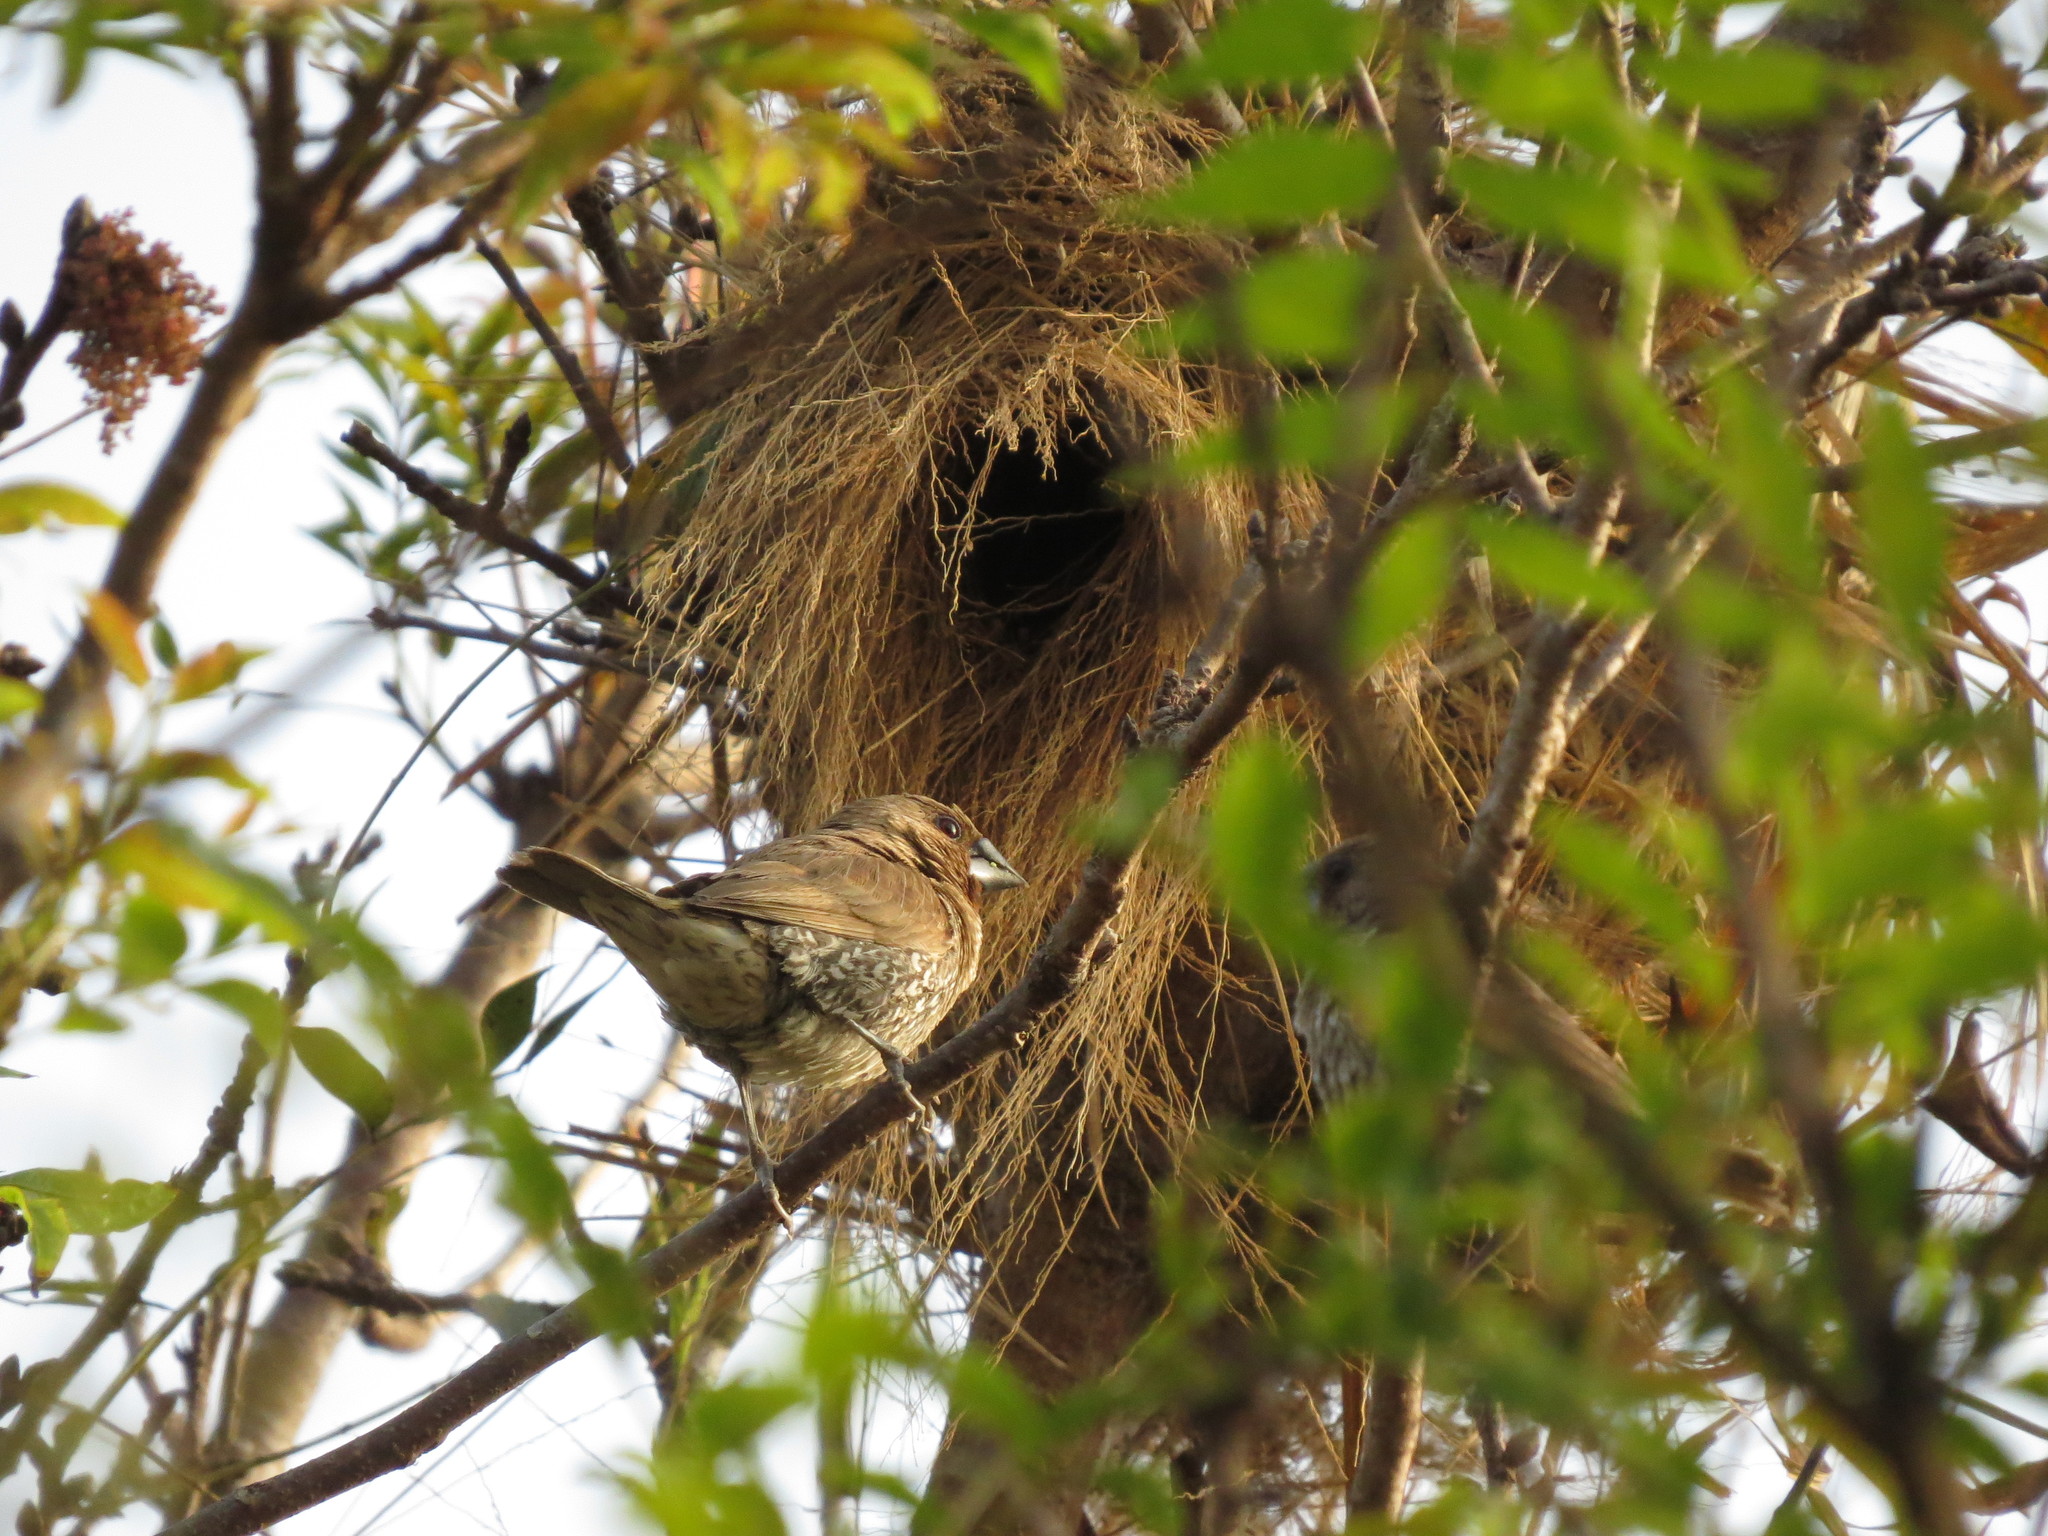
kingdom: Animalia
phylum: Chordata
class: Aves
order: Passeriformes
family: Estrildidae
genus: Lonchura
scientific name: Lonchura punctulata
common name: Scaly-breasted munia
